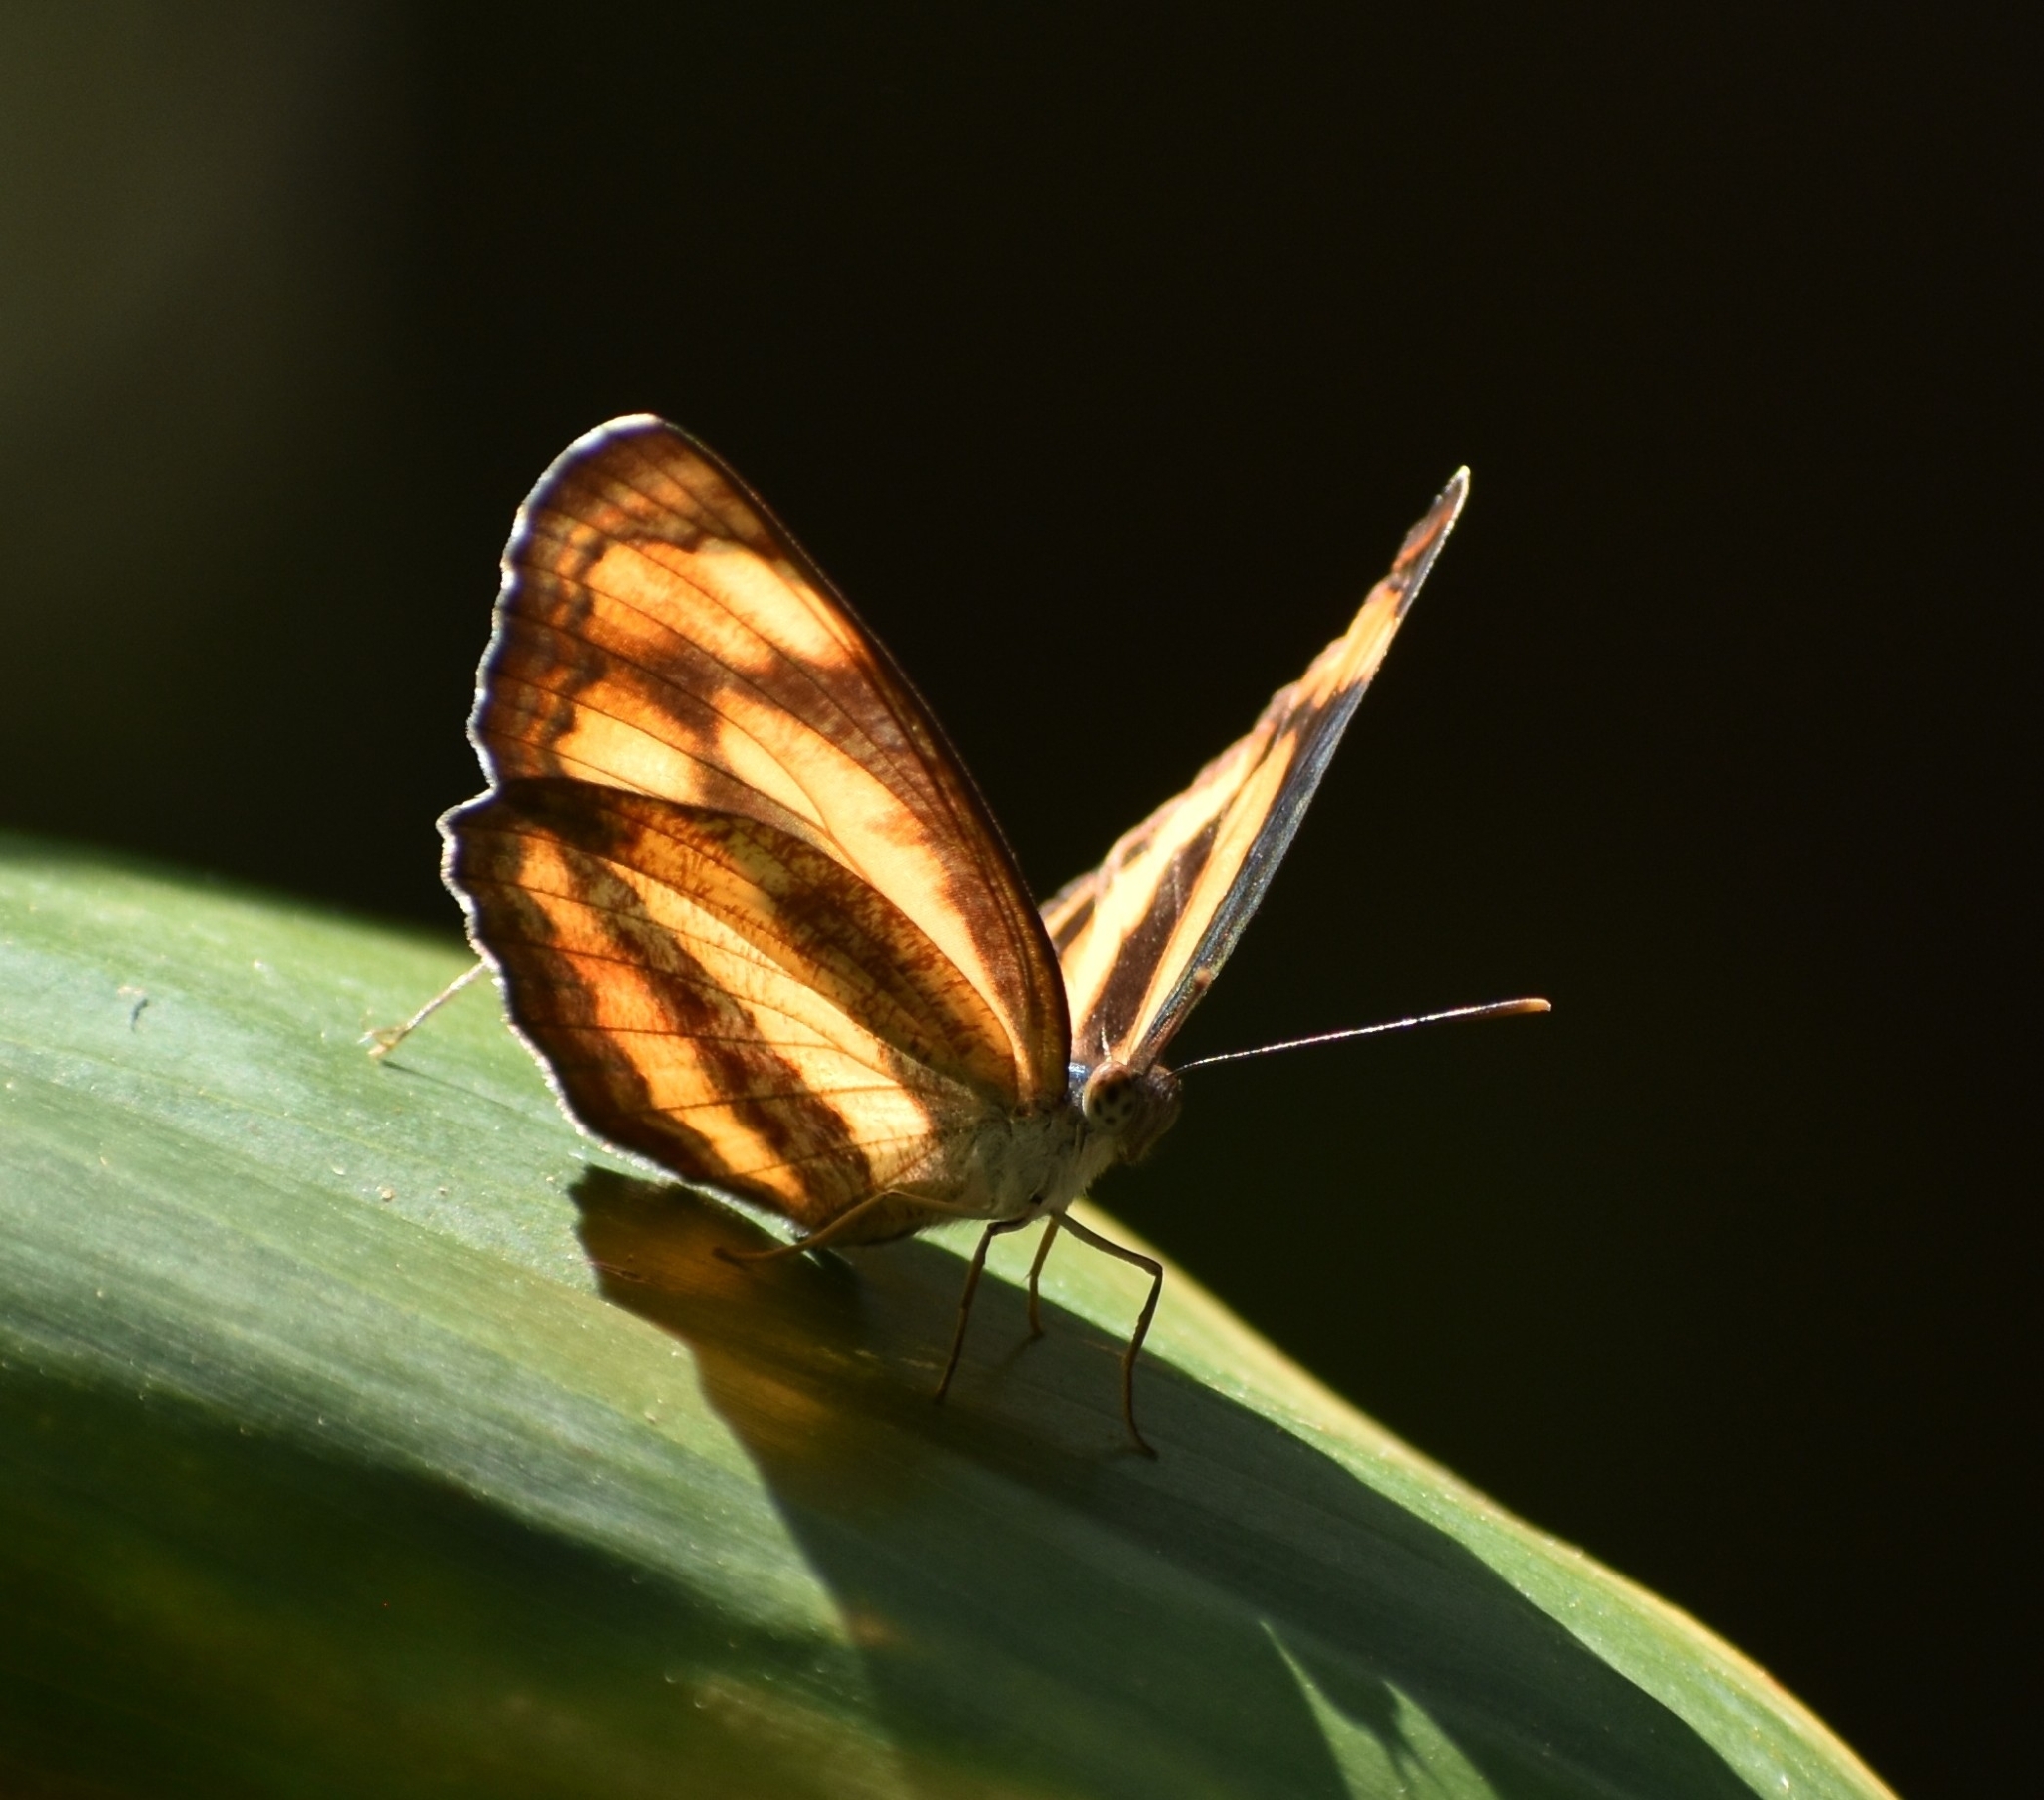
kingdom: Animalia
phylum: Arthropoda
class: Insecta
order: Lepidoptera
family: Nymphalidae
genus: Pantoporia
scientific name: Pantoporia hordonia
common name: Common lascar
